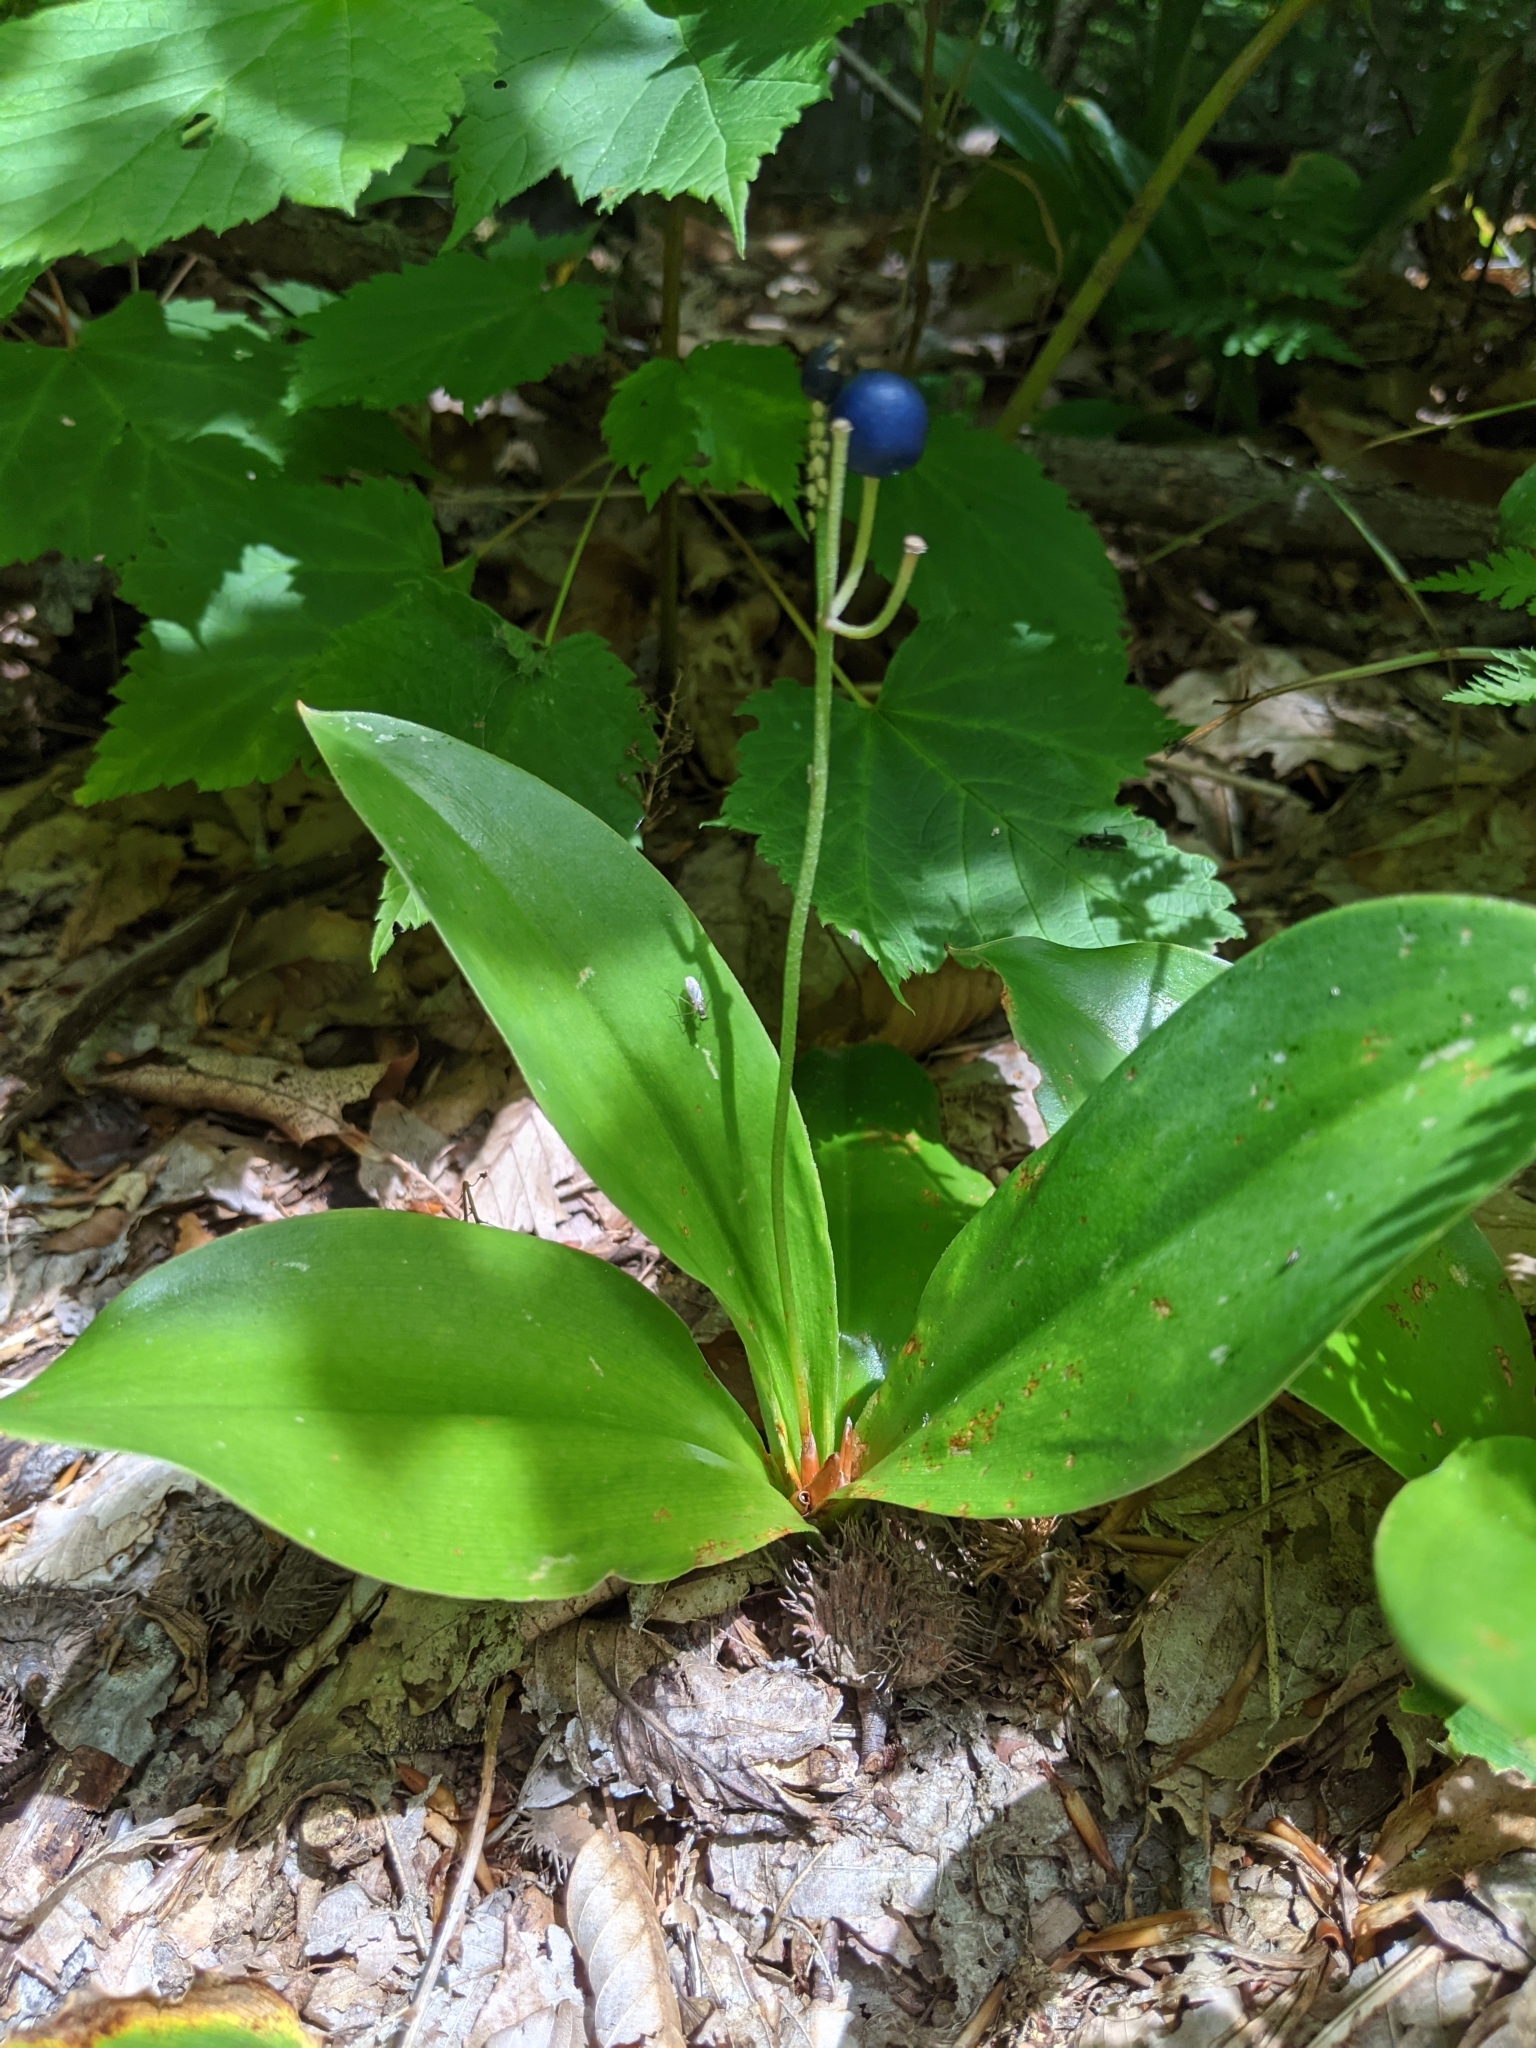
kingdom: Plantae
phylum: Tracheophyta
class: Liliopsida
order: Liliales
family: Liliaceae
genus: Clintonia
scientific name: Clintonia borealis
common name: Yellow clintonia
